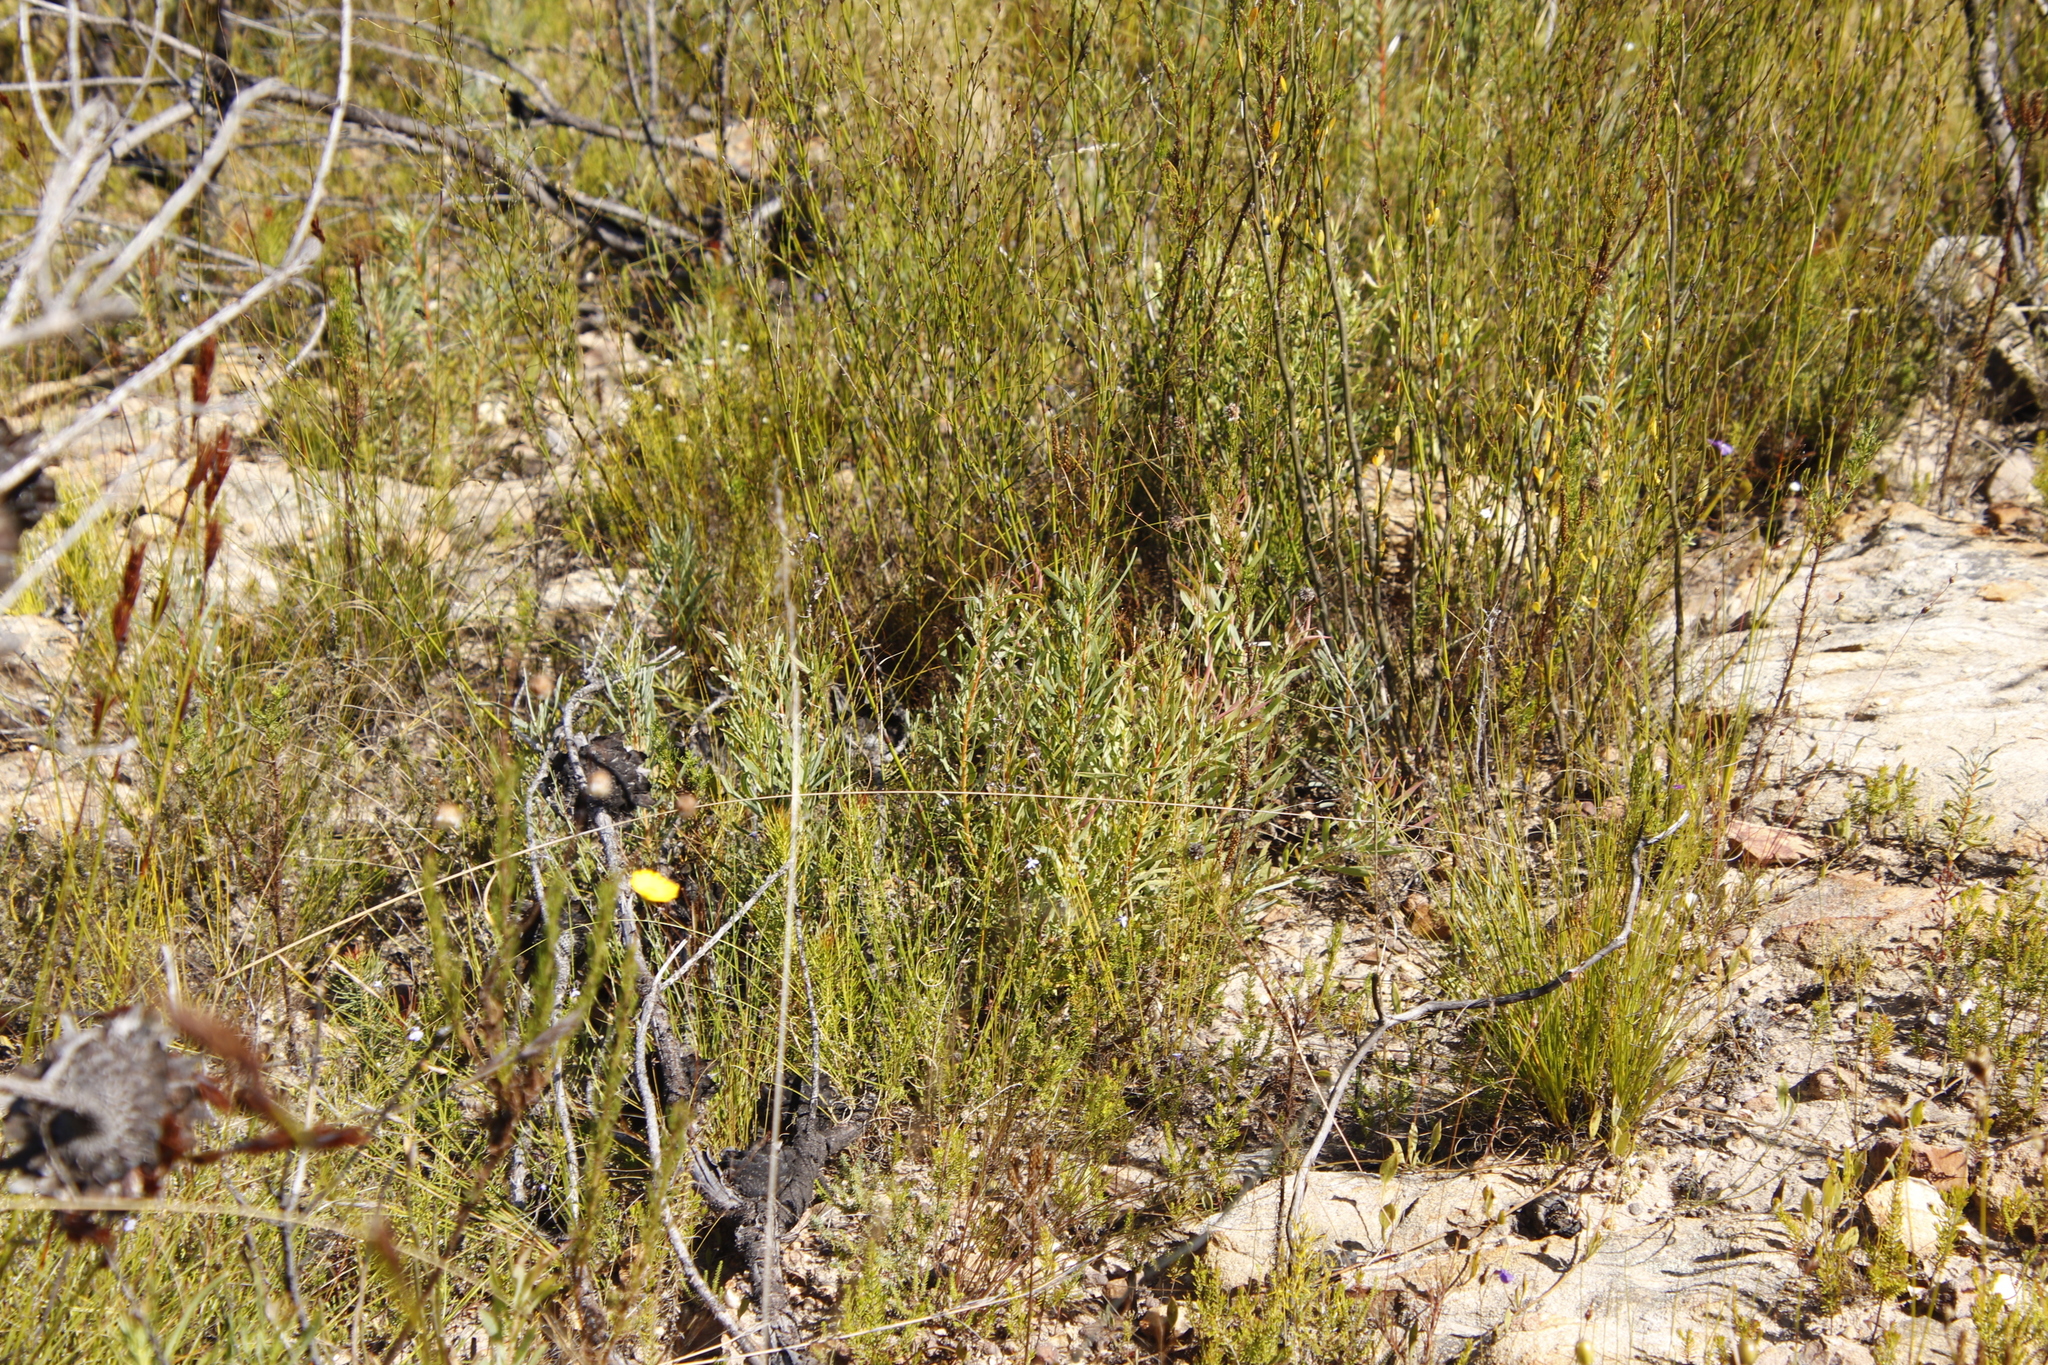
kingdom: Plantae
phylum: Tracheophyta
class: Magnoliopsida
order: Proteales
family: Proteaceae
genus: Leucadendron
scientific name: Leucadendron salignum
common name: Common sunshine conebush
